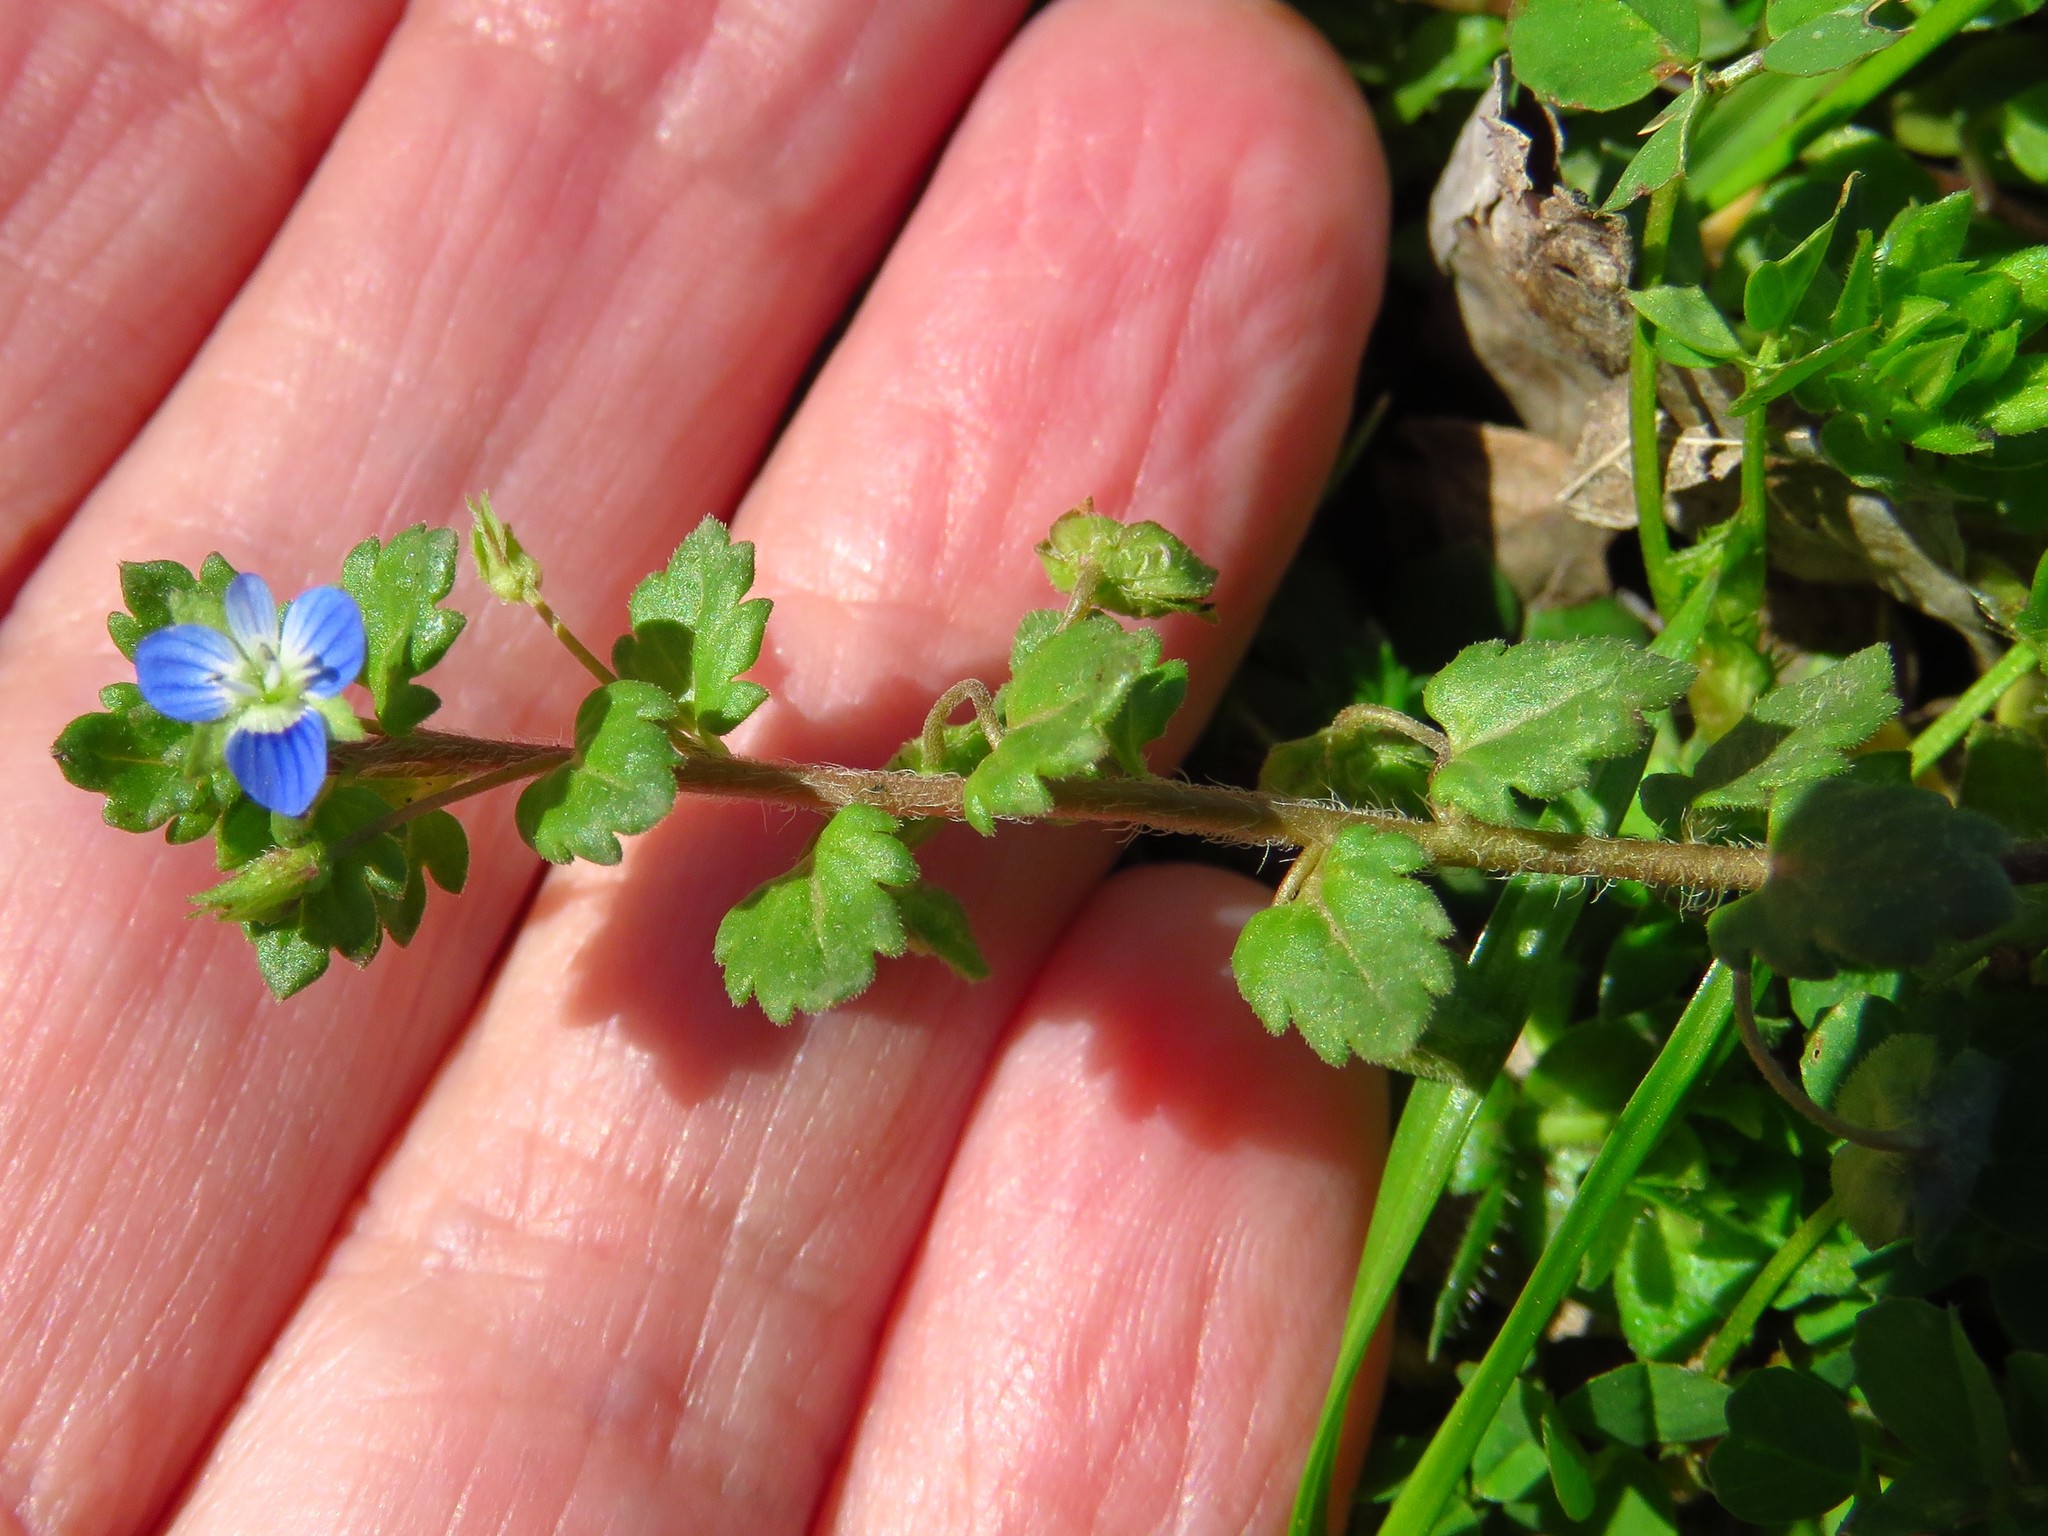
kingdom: Plantae
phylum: Tracheophyta
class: Magnoliopsida
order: Lamiales
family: Plantaginaceae
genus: Veronica
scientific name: Veronica polita
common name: Grey field-speedwell
